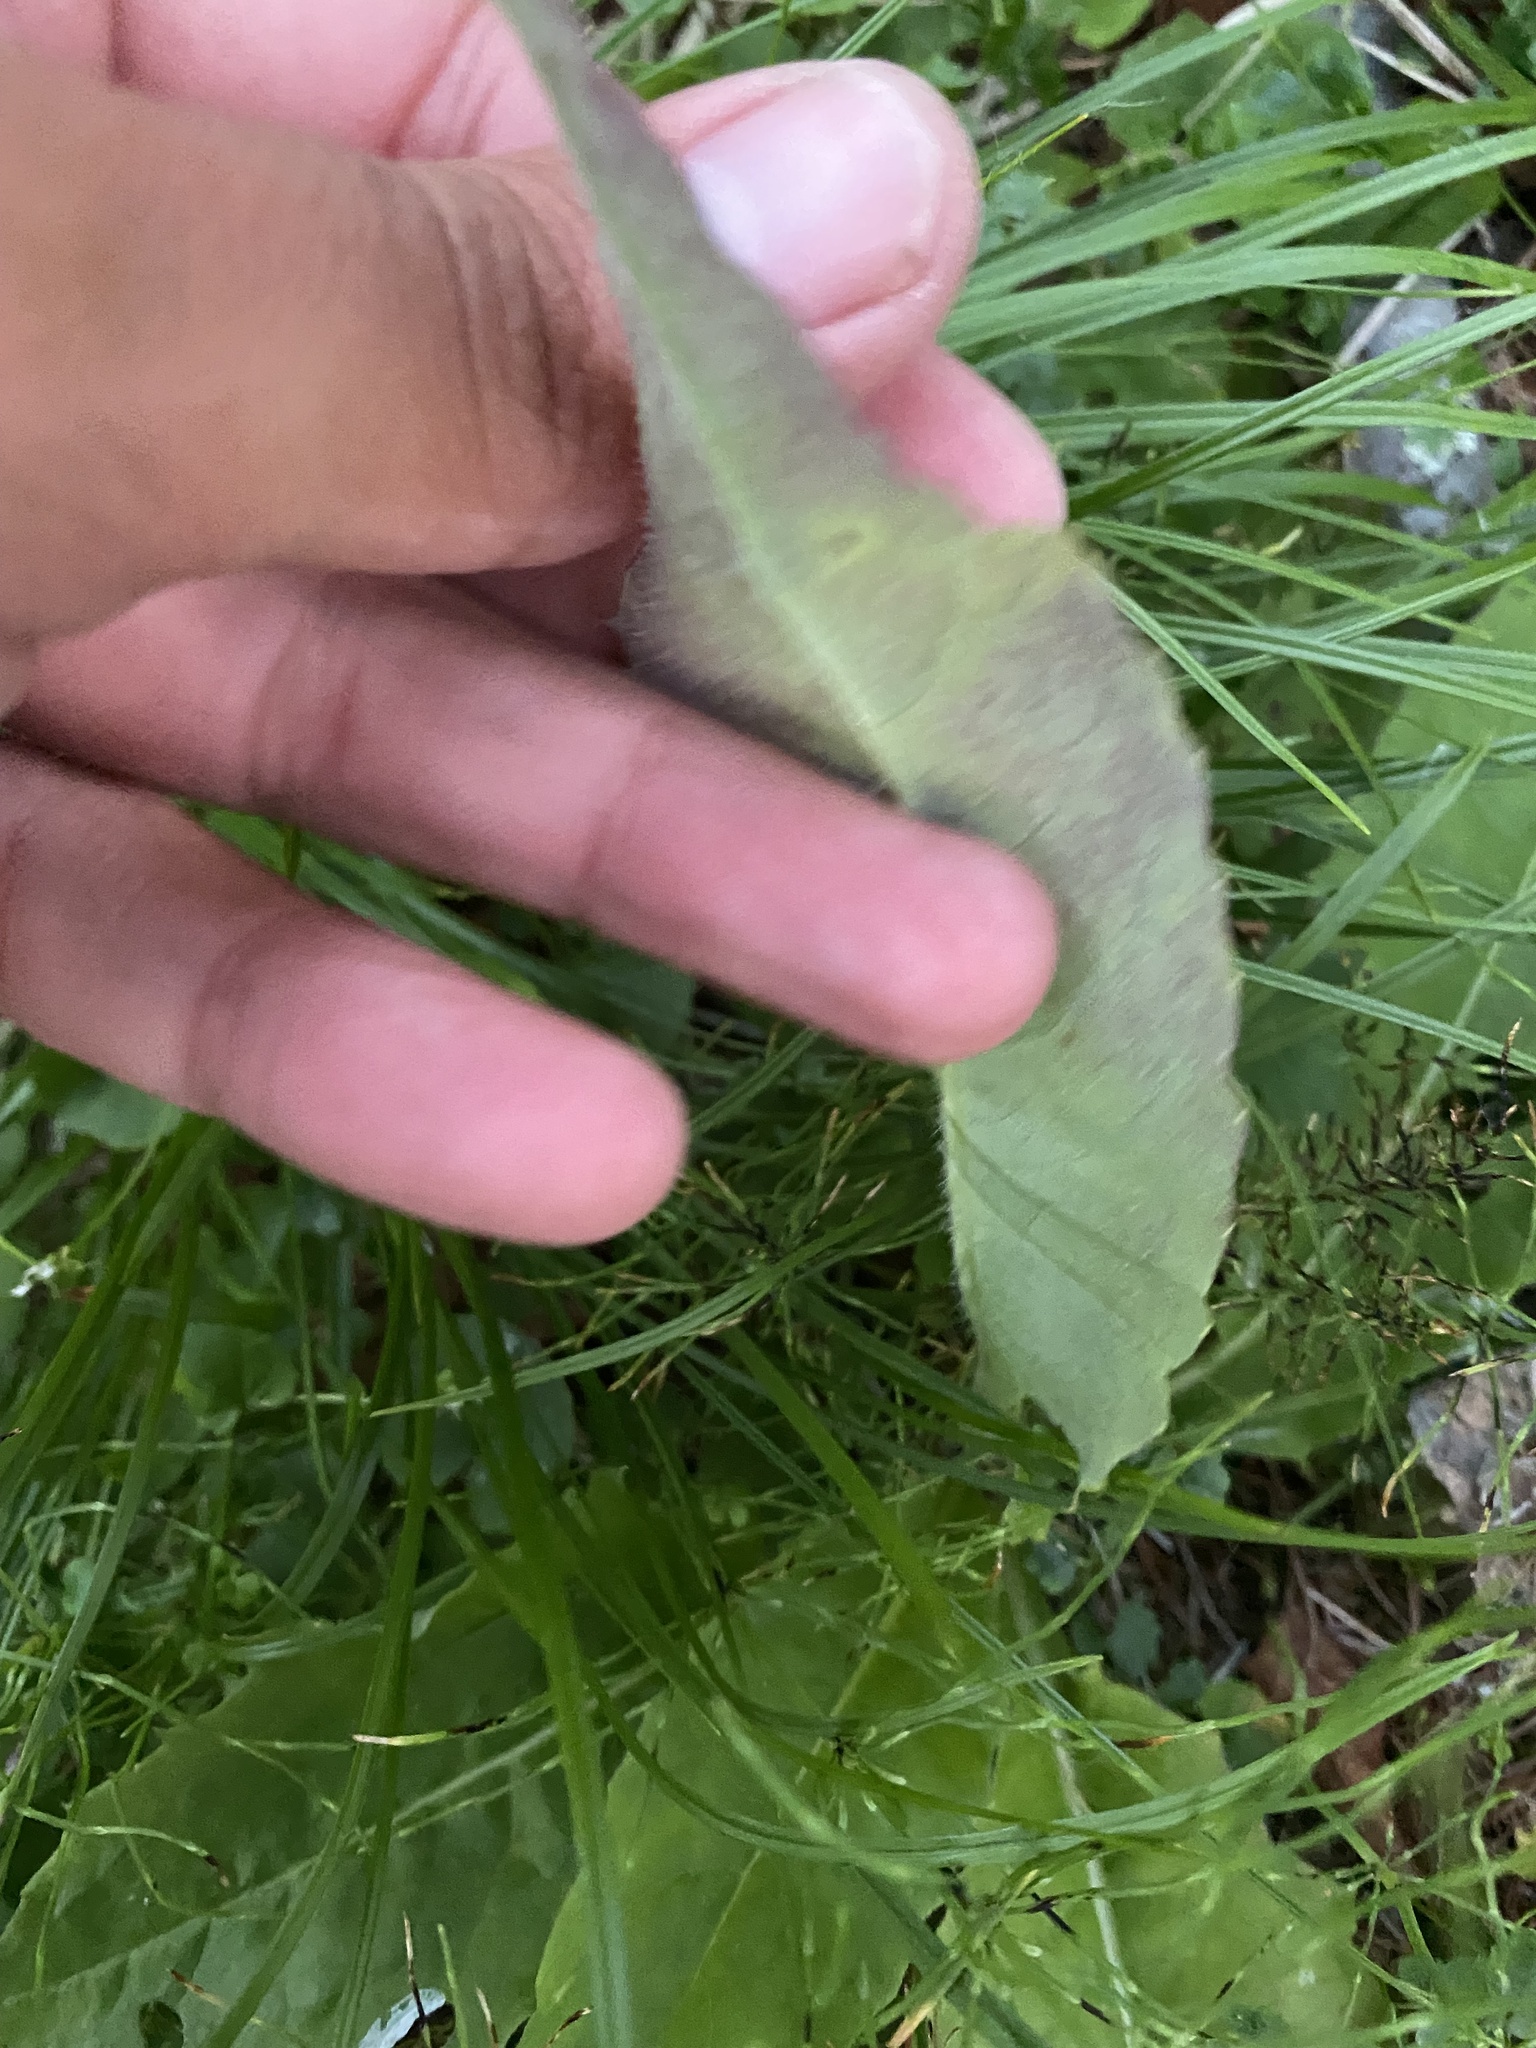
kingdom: Plantae
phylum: Tracheophyta
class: Magnoliopsida
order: Asterales
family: Asteraceae
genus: Saussurea
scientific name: Saussurea parviflora
